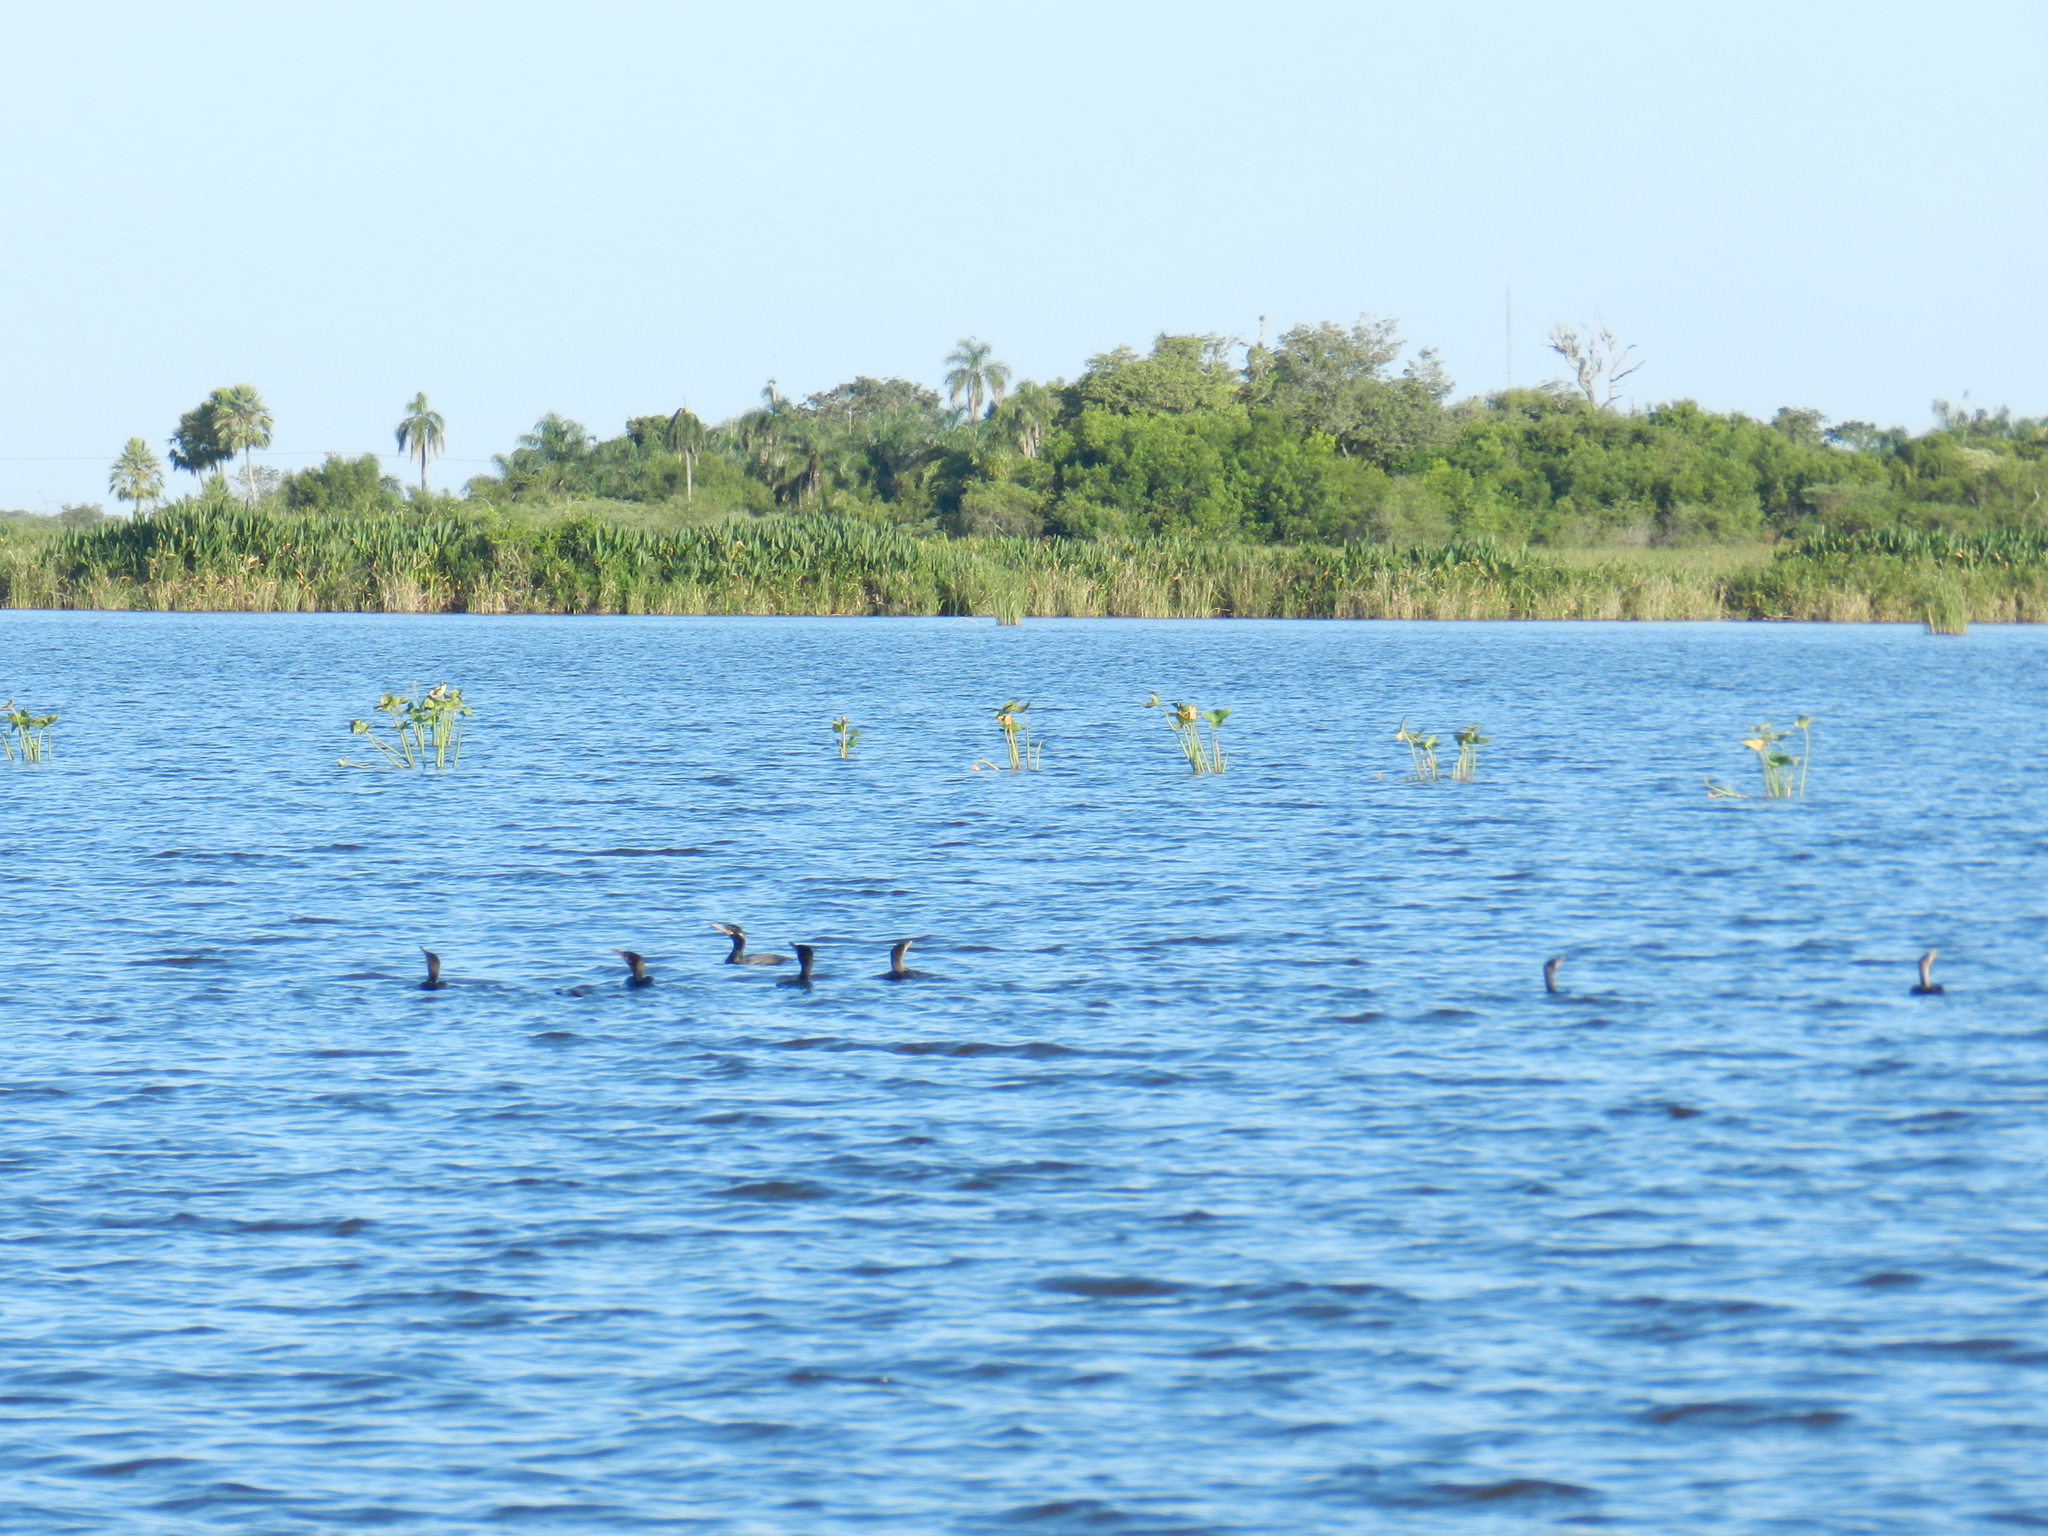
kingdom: Animalia
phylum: Chordata
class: Aves
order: Suliformes
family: Phalacrocoracidae
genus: Phalacrocorax
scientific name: Phalacrocorax brasilianus
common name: Neotropic cormorant
